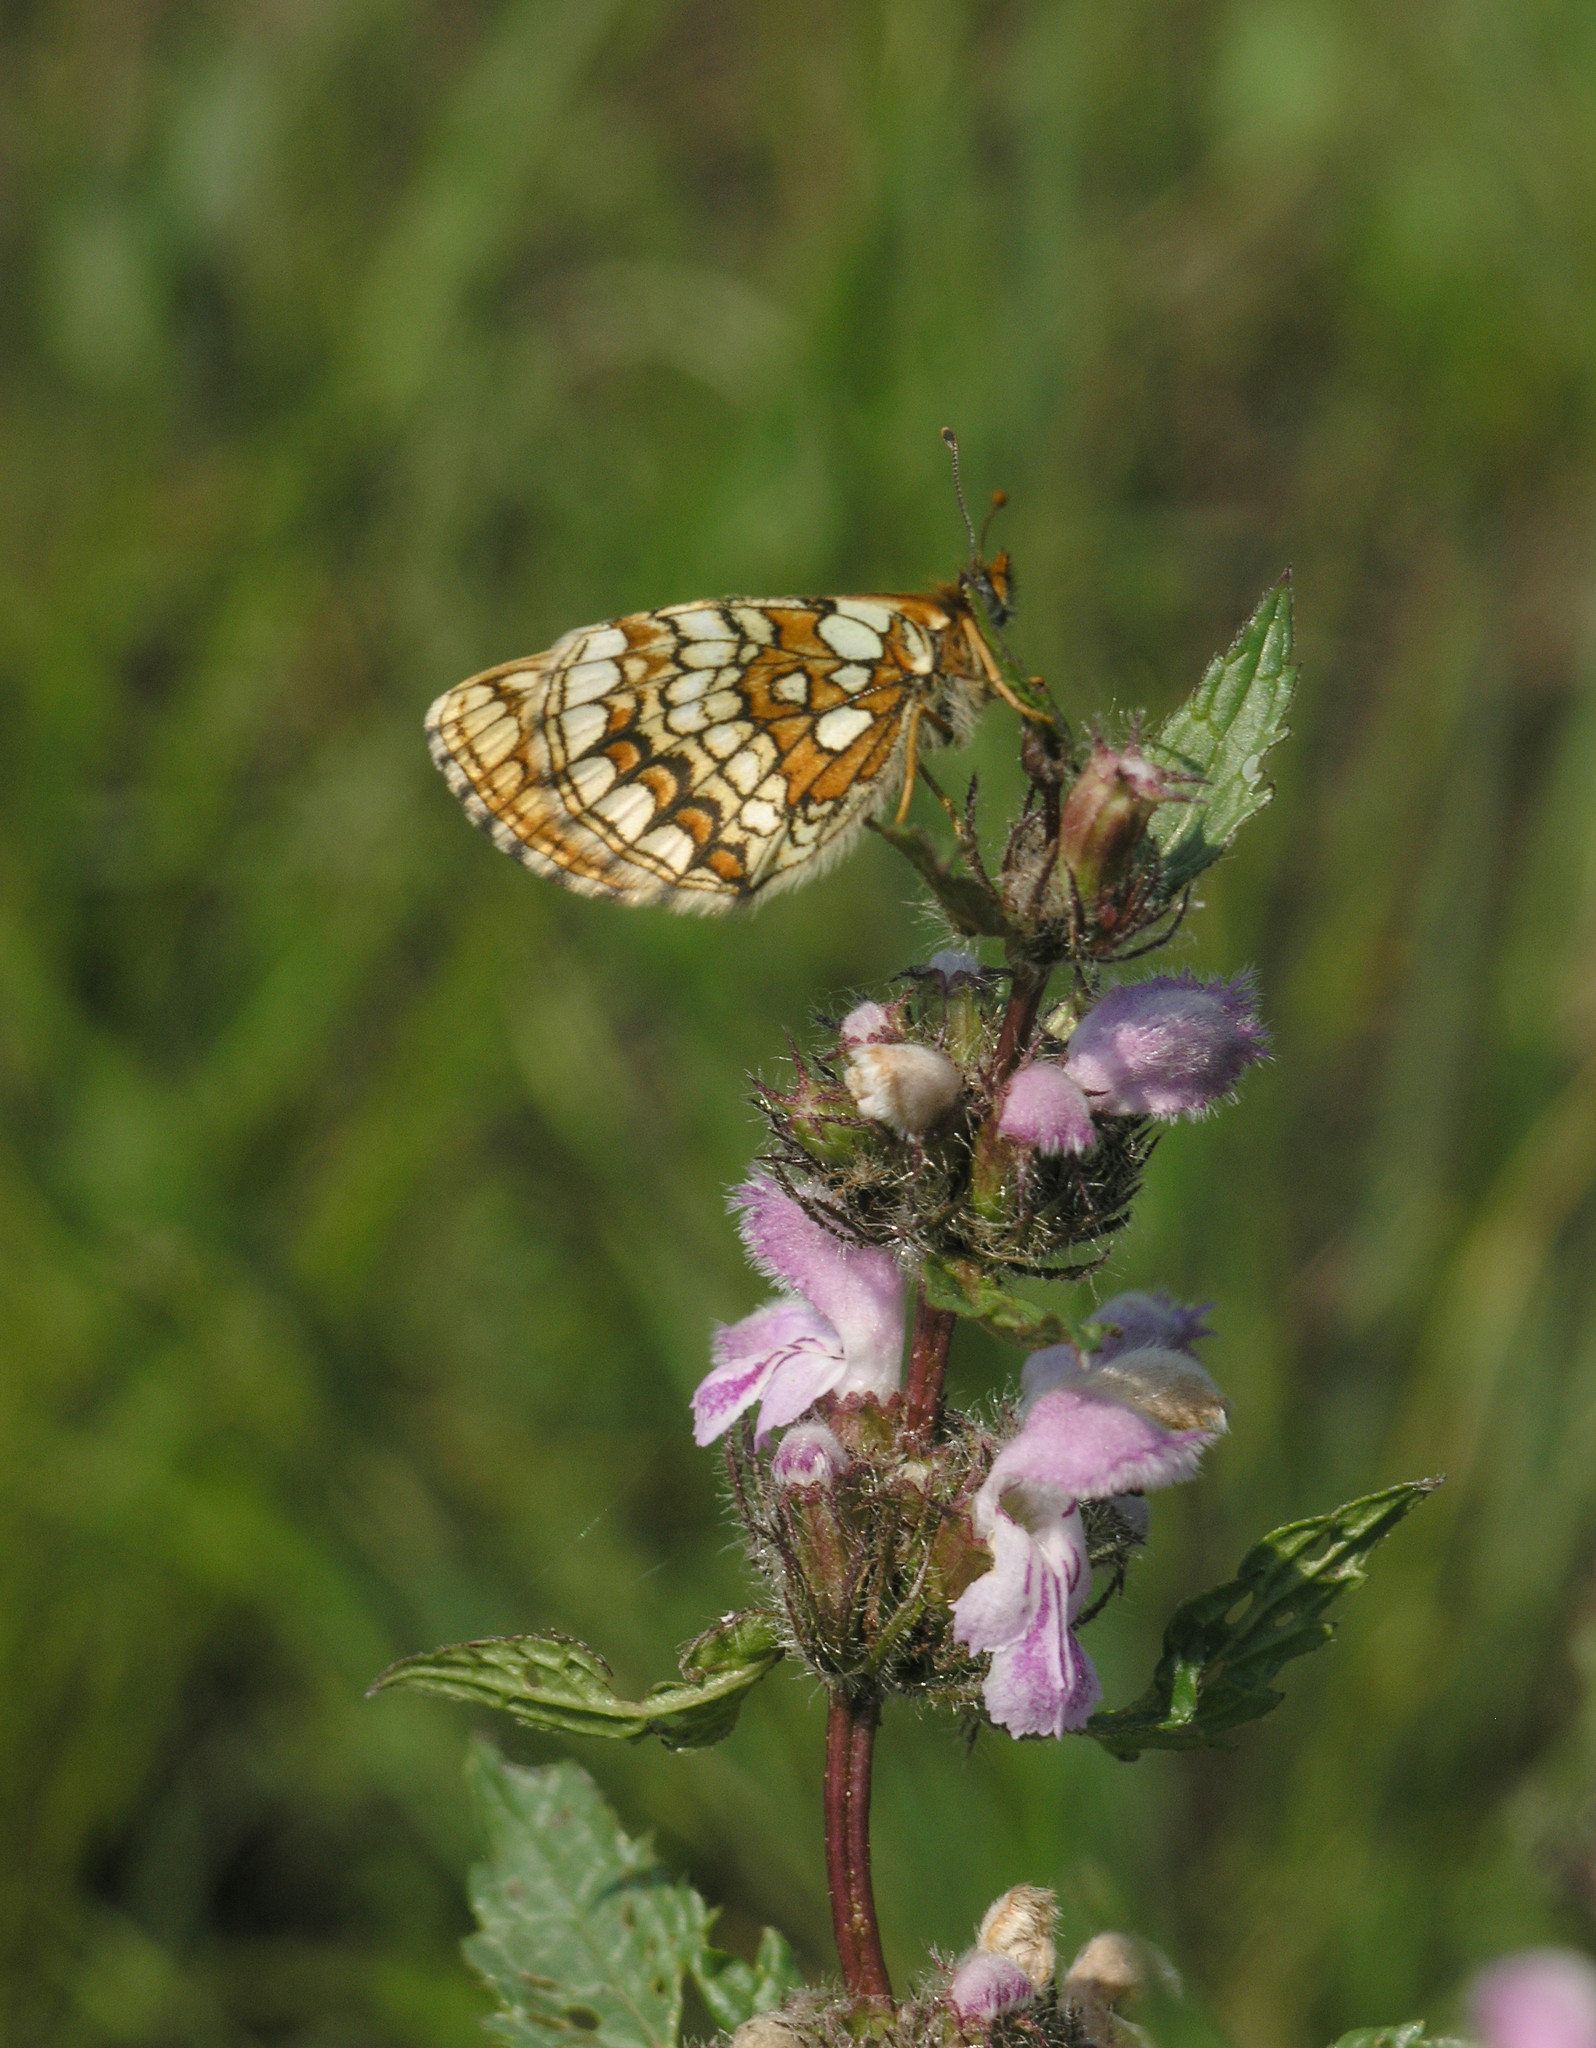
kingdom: Plantae
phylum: Tracheophyta
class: Magnoliopsida
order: Lamiales
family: Lamiaceae
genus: Phlomoides
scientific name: Phlomoides tuberosa
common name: Tuberous jerusalem sage
